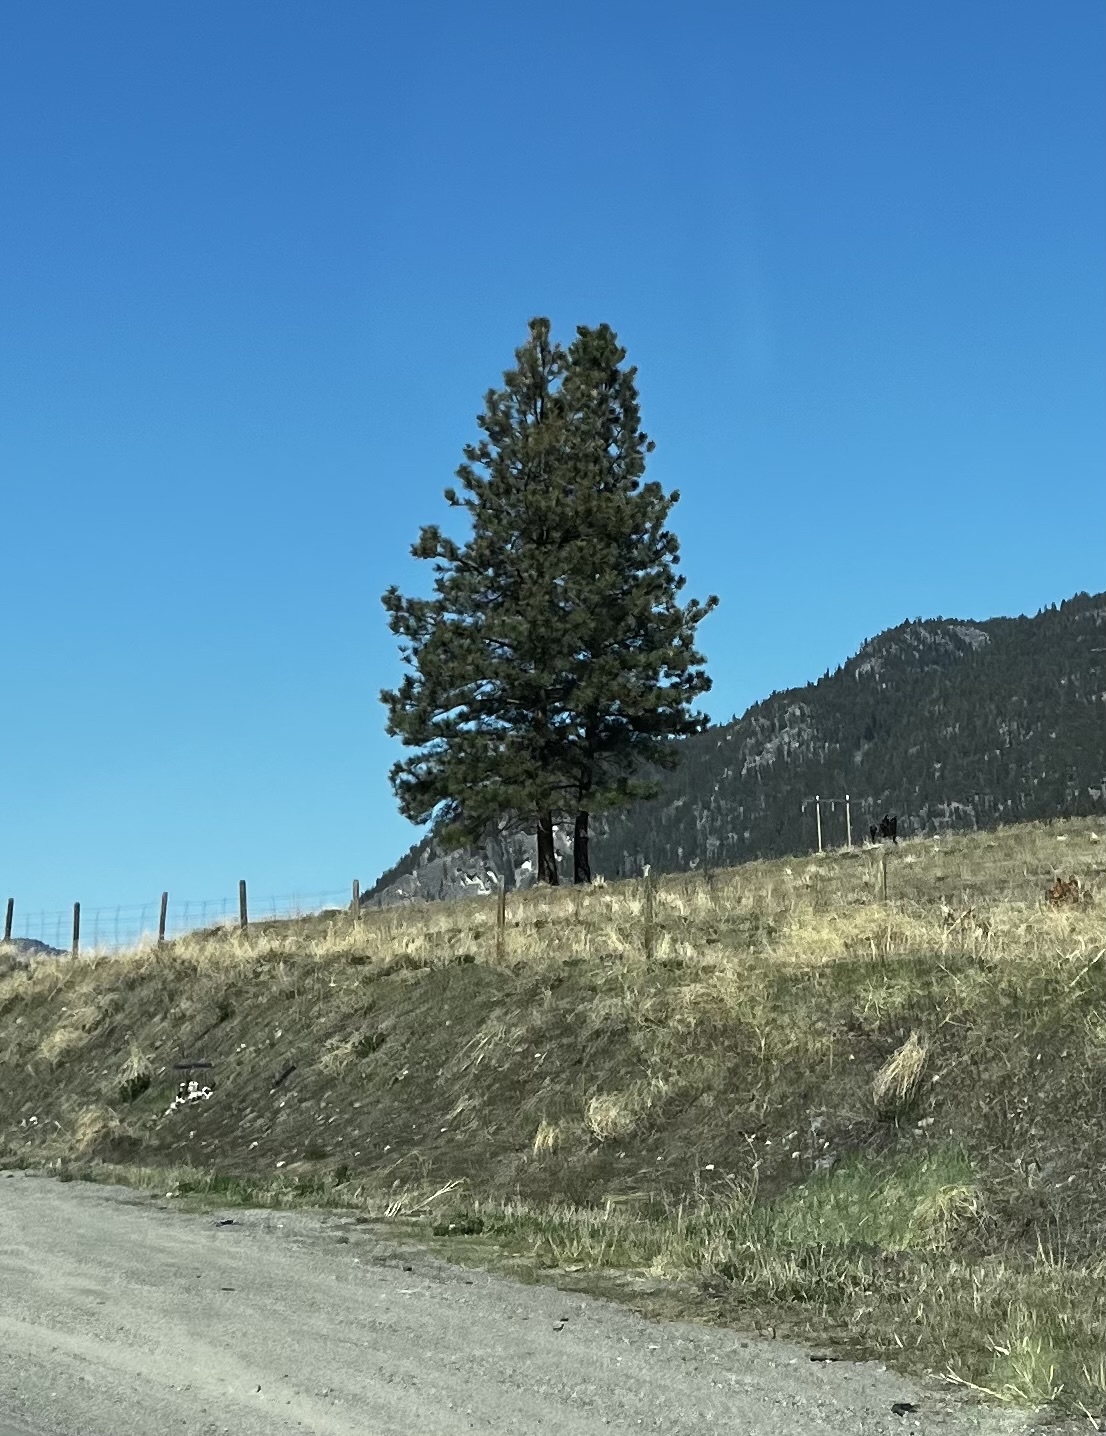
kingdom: Plantae
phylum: Tracheophyta
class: Pinopsida
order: Pinales
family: Pinaceae
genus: Pinus
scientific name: Pinus ponderosa
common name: Western yellow-pine
